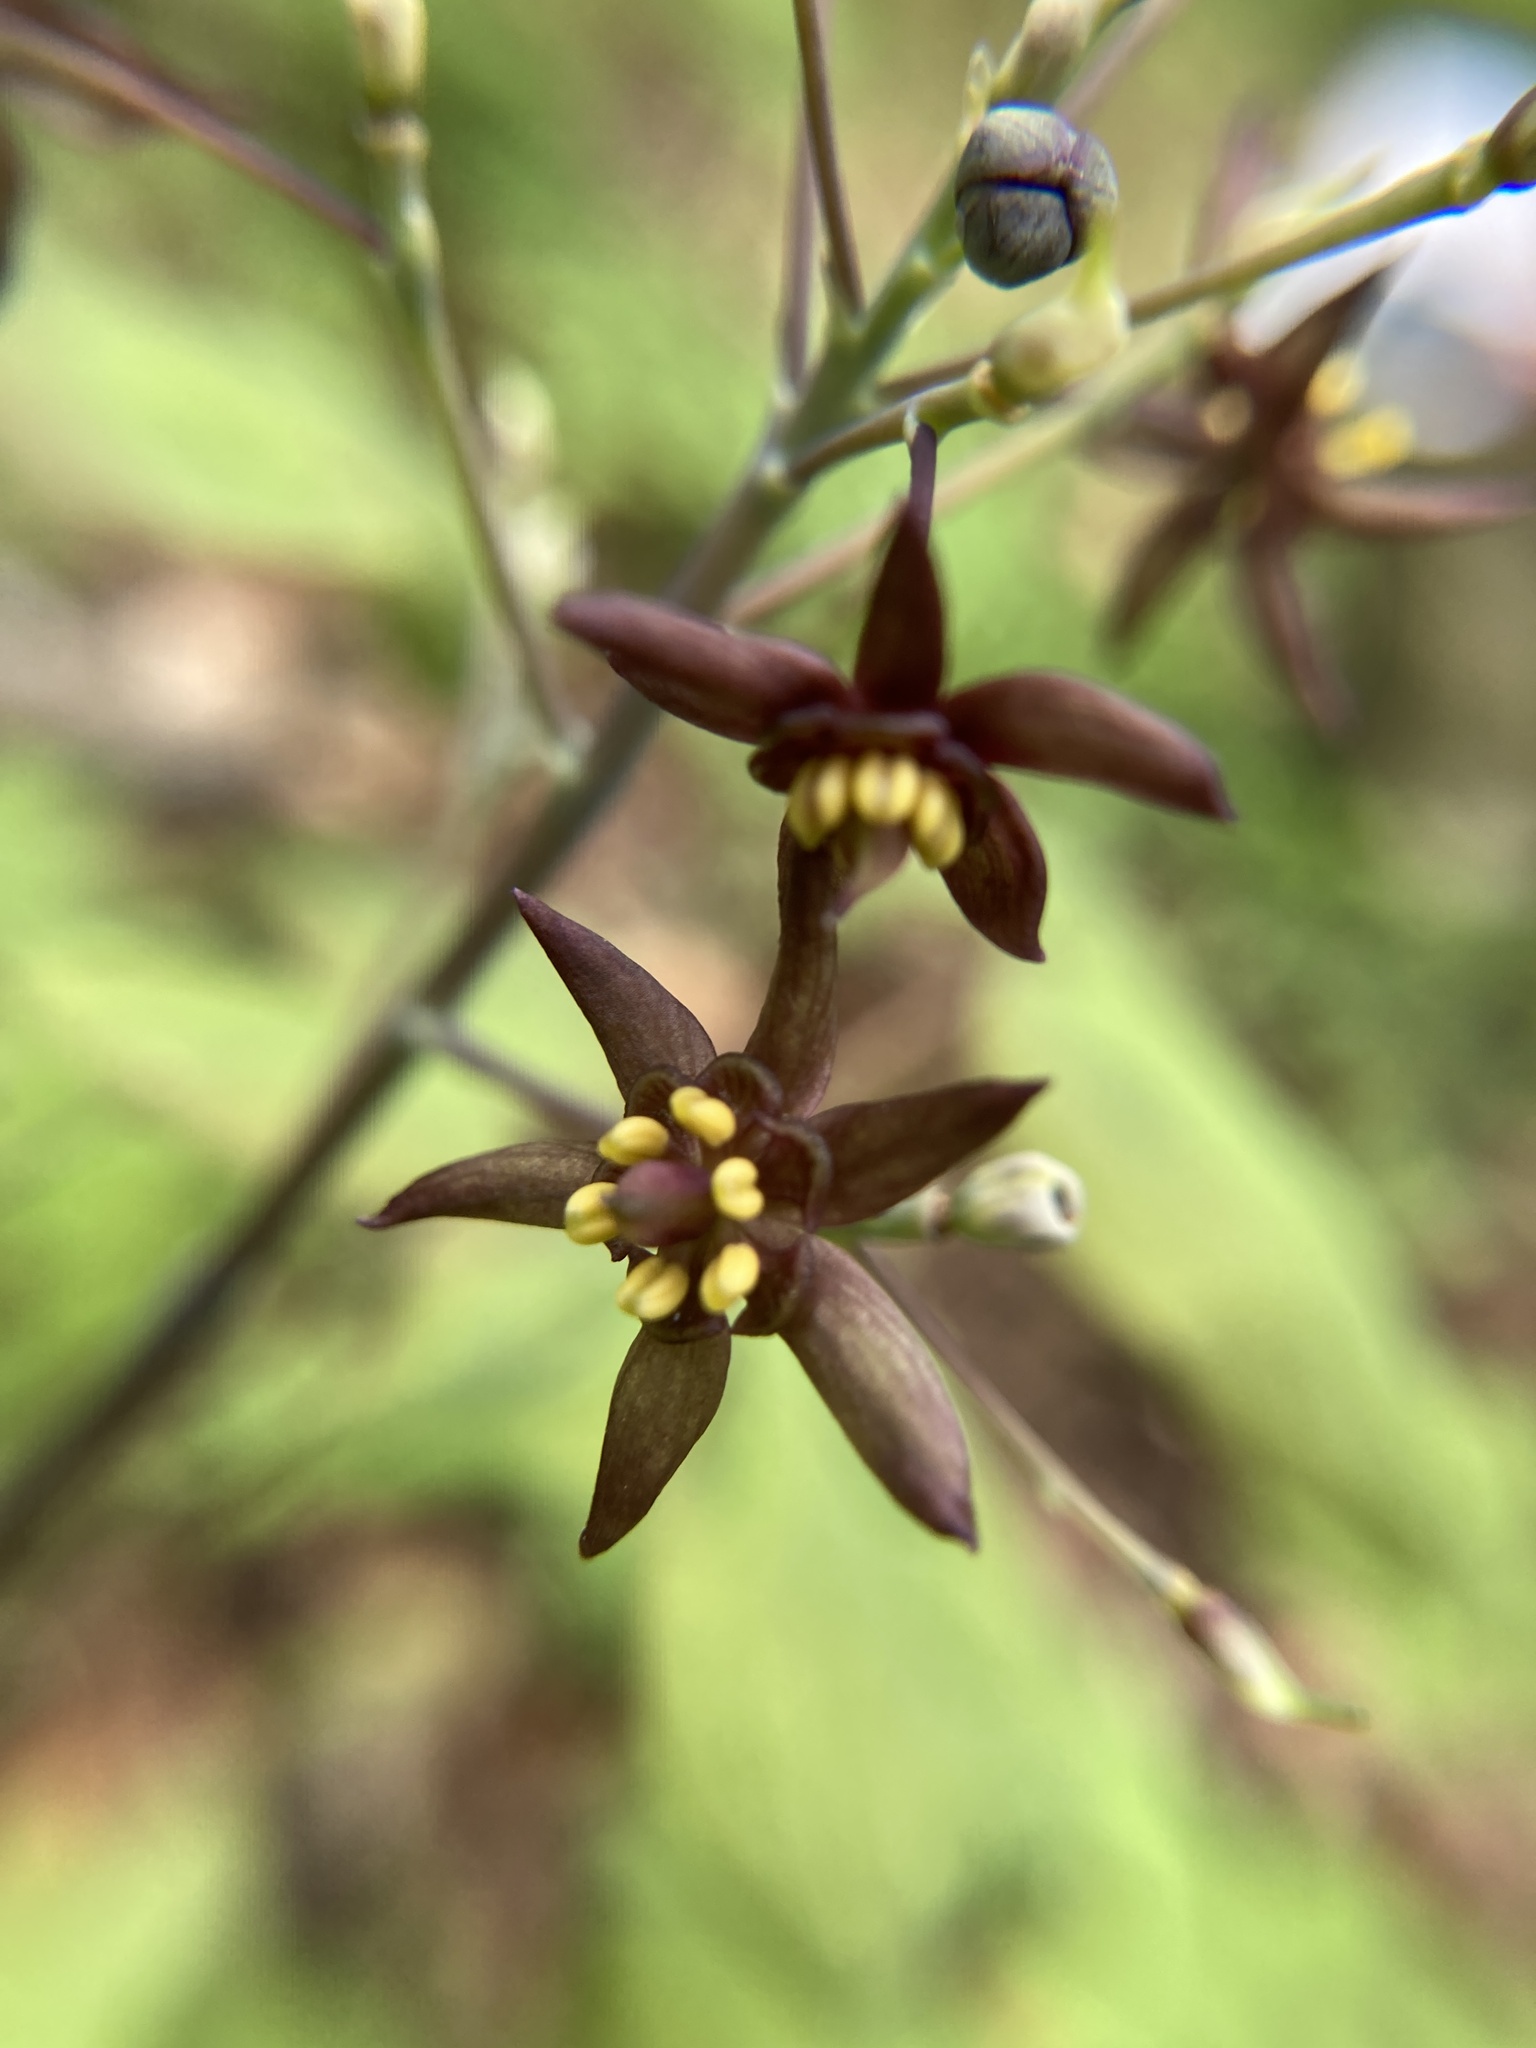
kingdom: Plantae
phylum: Tracheophyta
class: Magnoliopsida
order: Ranunculales
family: Berberidaceae
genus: Caulophyllum
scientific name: Caulophyllum giganteum
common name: Blue cohosh
